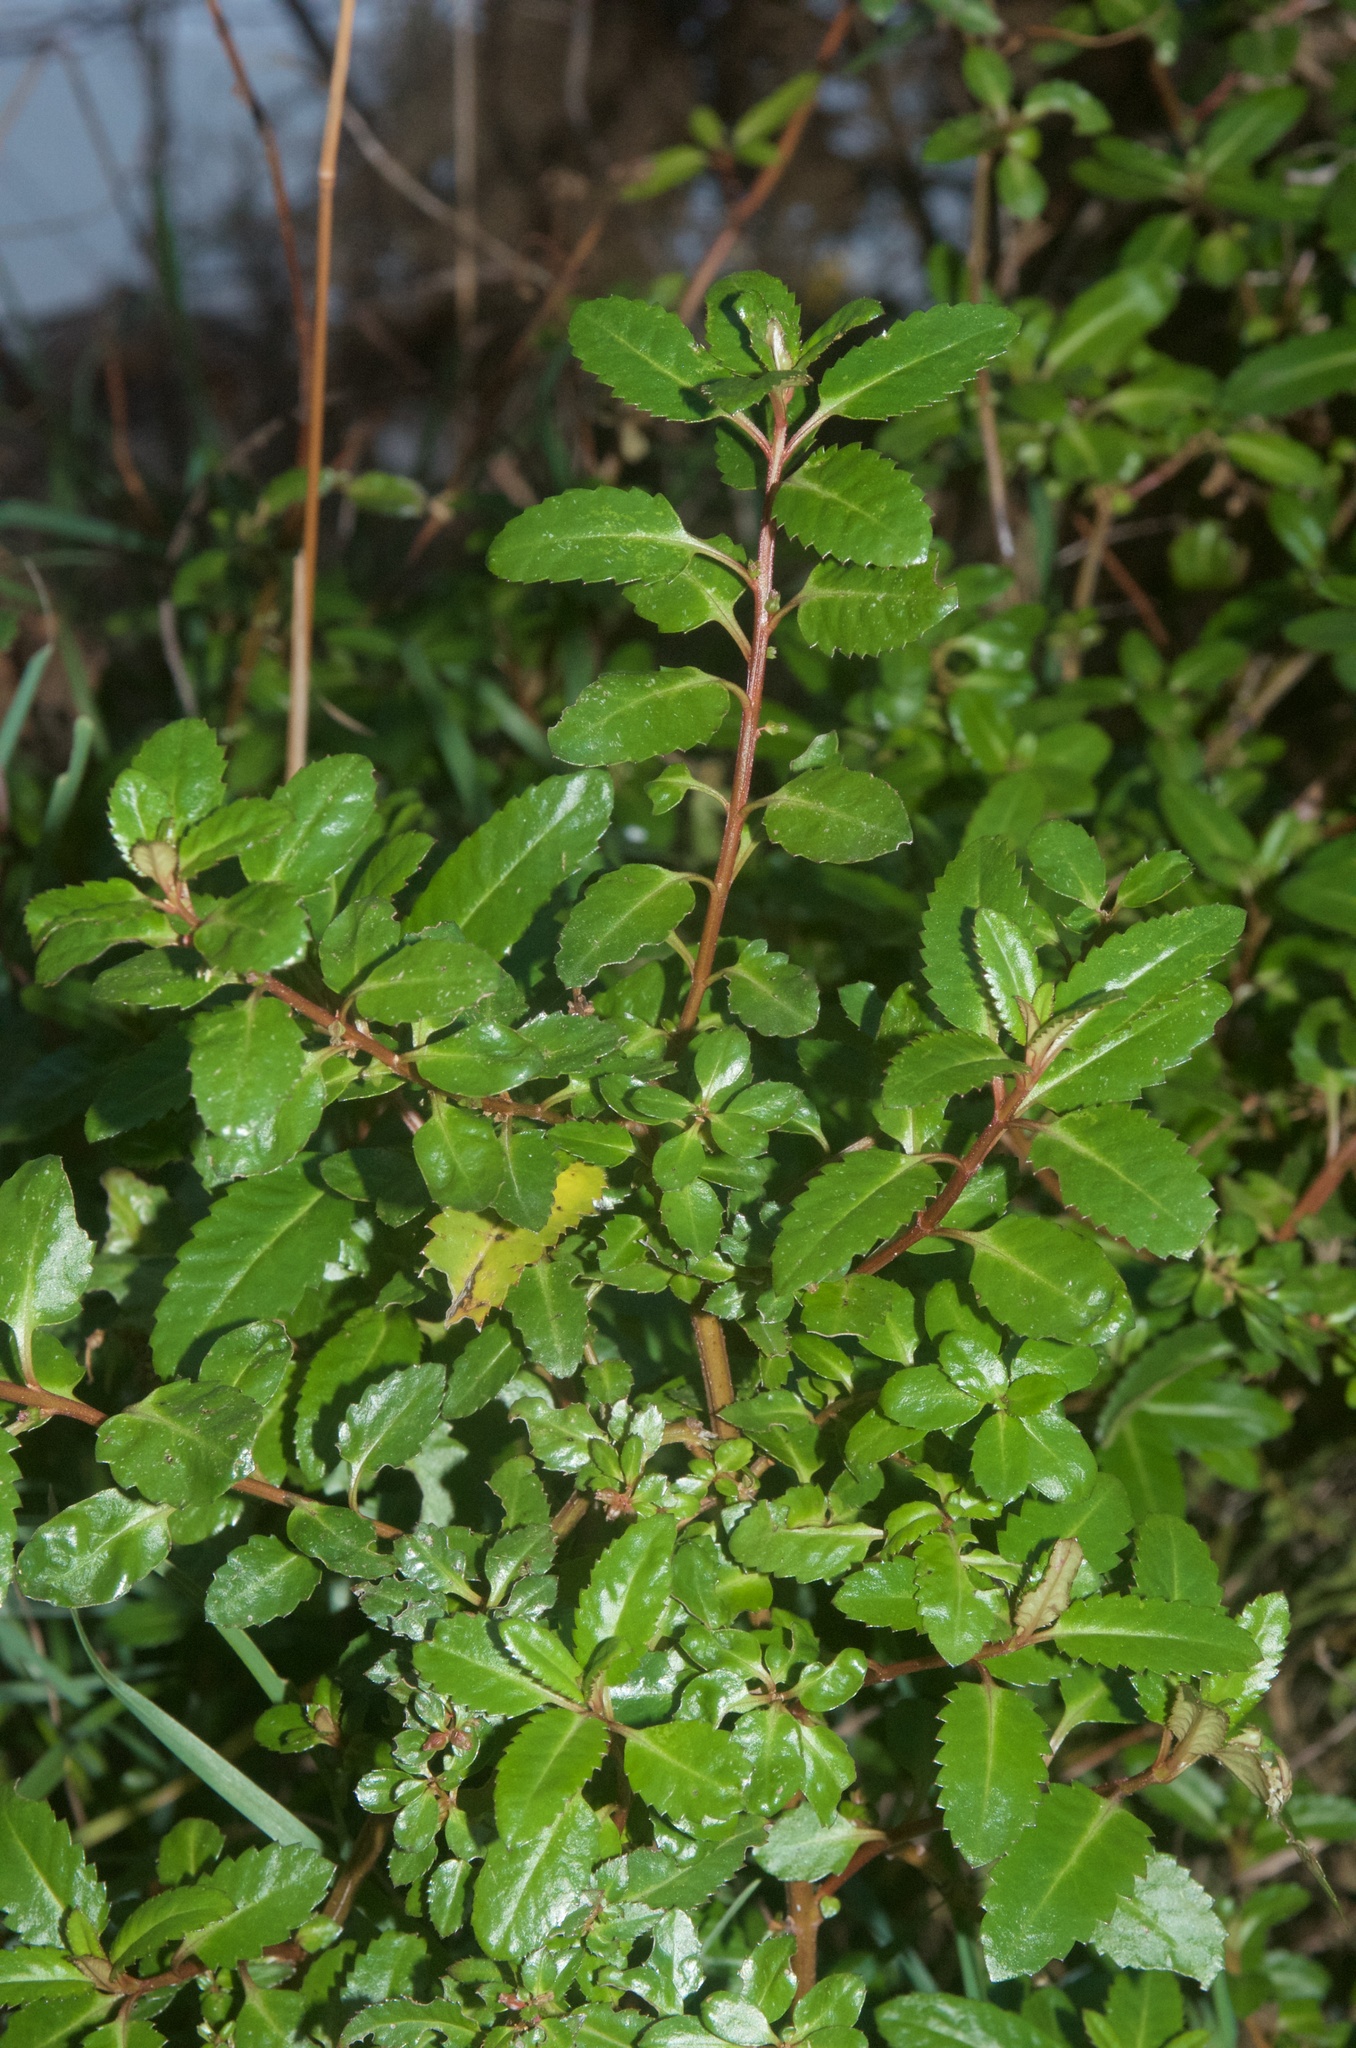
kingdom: Plantae
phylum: Tracheophyta
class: Magnoliopsida
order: Saxifragales
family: Haloragaceae
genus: Haloragis
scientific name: Haloragis erecta
